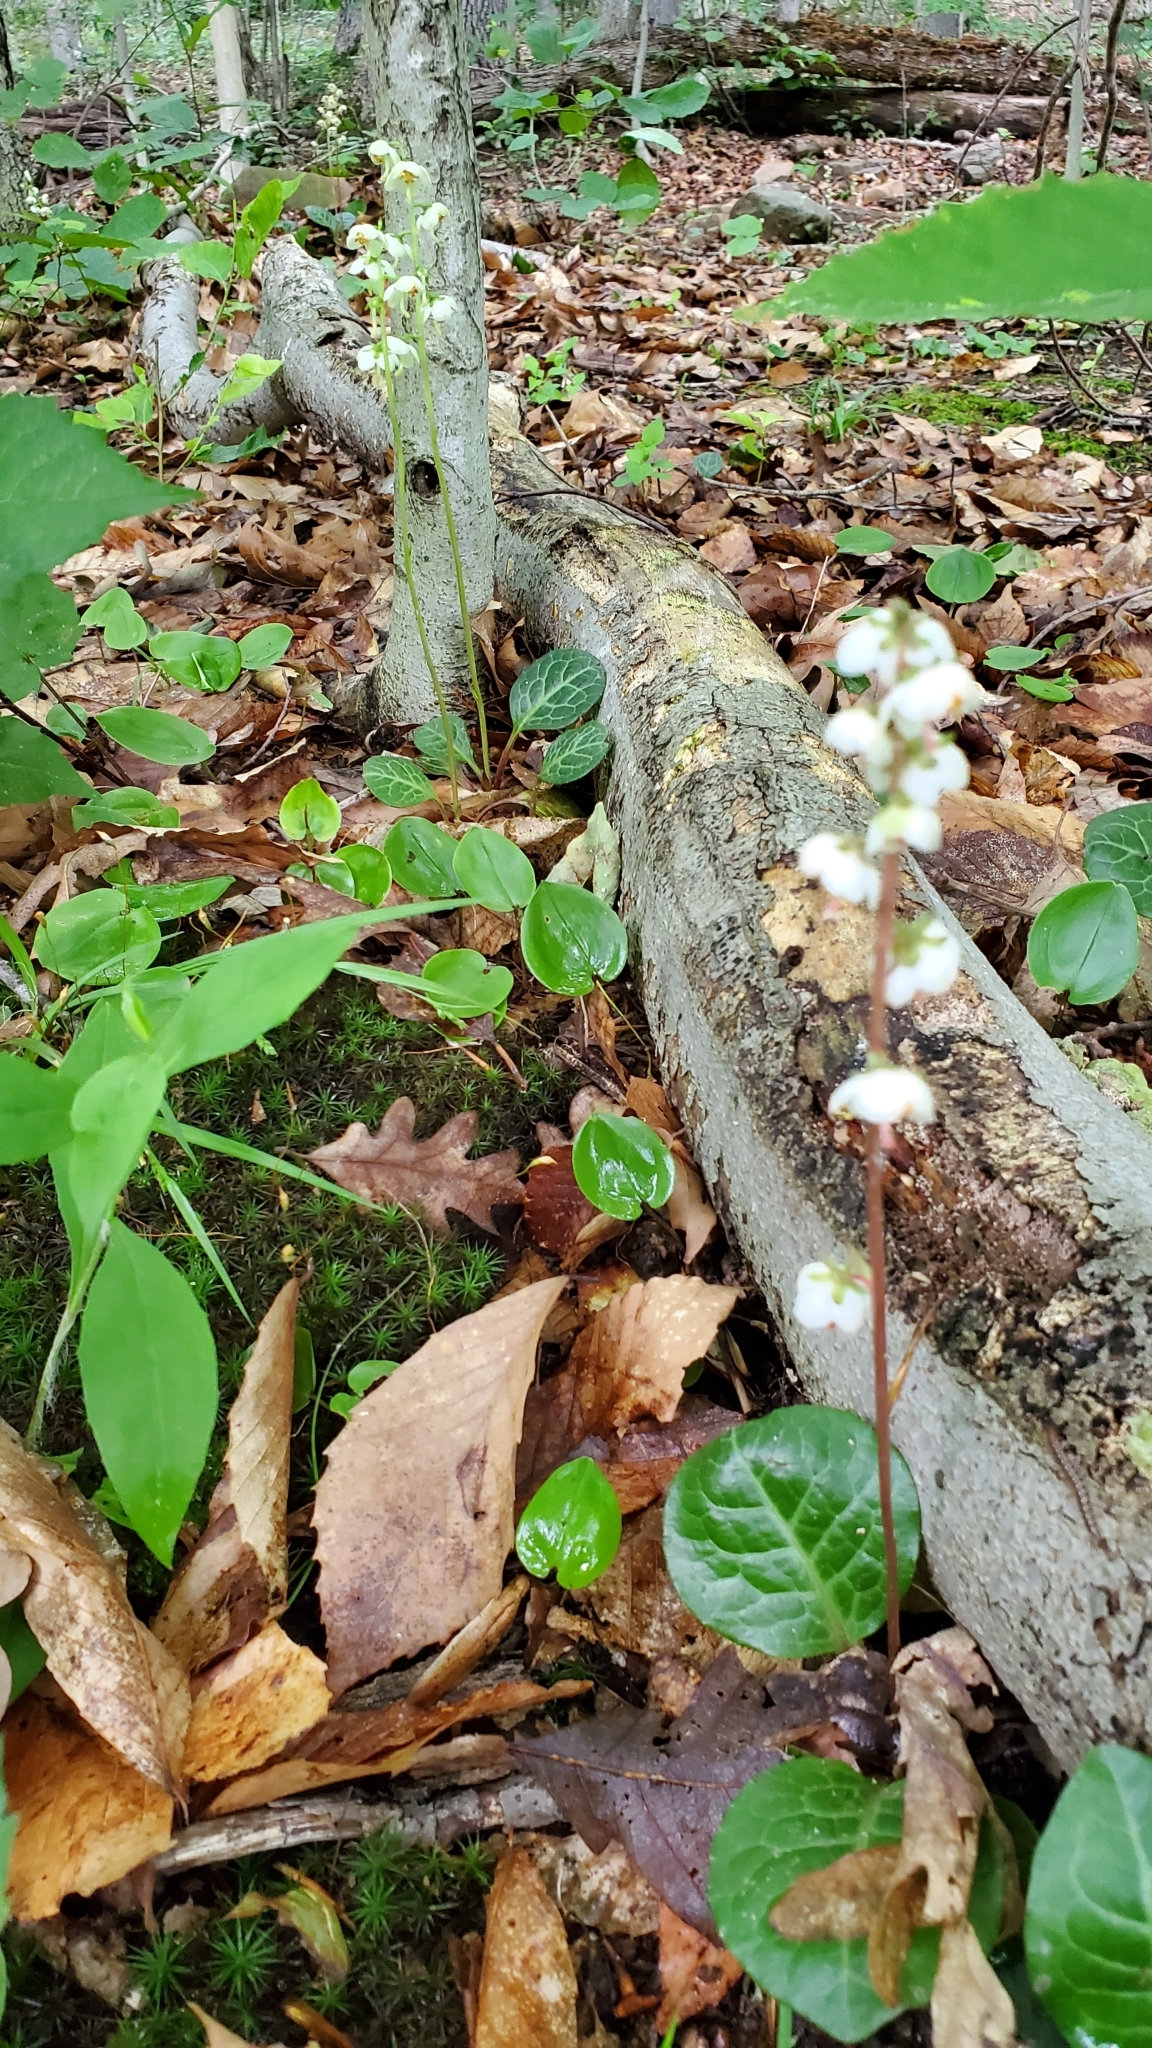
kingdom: Plantae
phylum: Tracheophyta
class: Magnoliopsida
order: Ericales
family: Ericaceae
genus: Pyrola
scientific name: Pyrola americana
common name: American wintergreen
